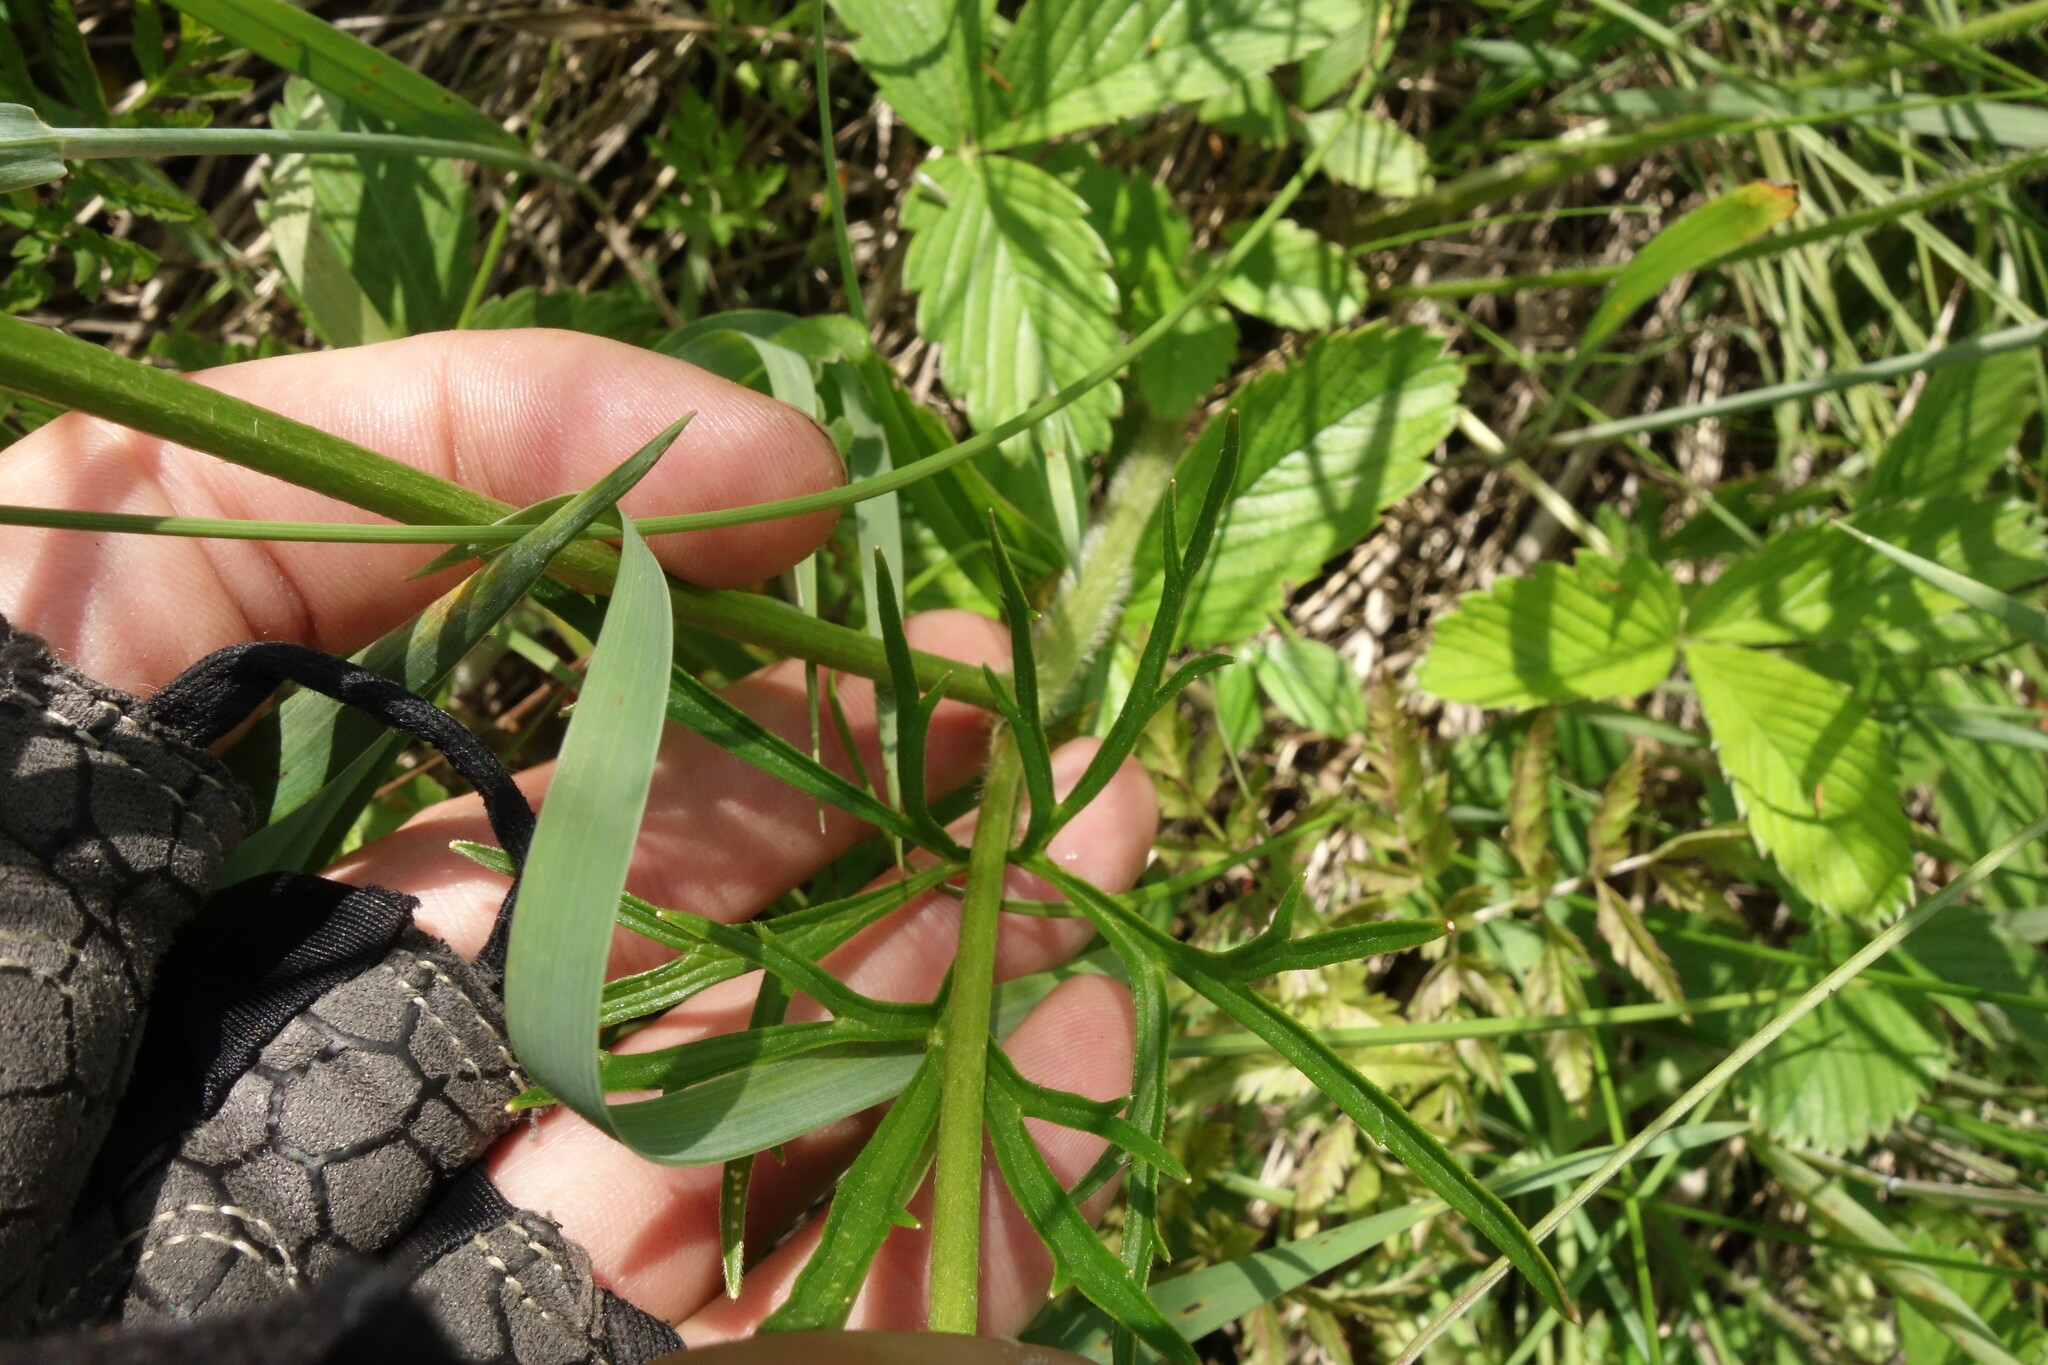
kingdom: Plantae
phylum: Tracheophyta
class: Magnoliopsida
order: Ranunculales
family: Ranunculaceae
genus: Ranunculus
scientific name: Ranunculus polyanthemos
